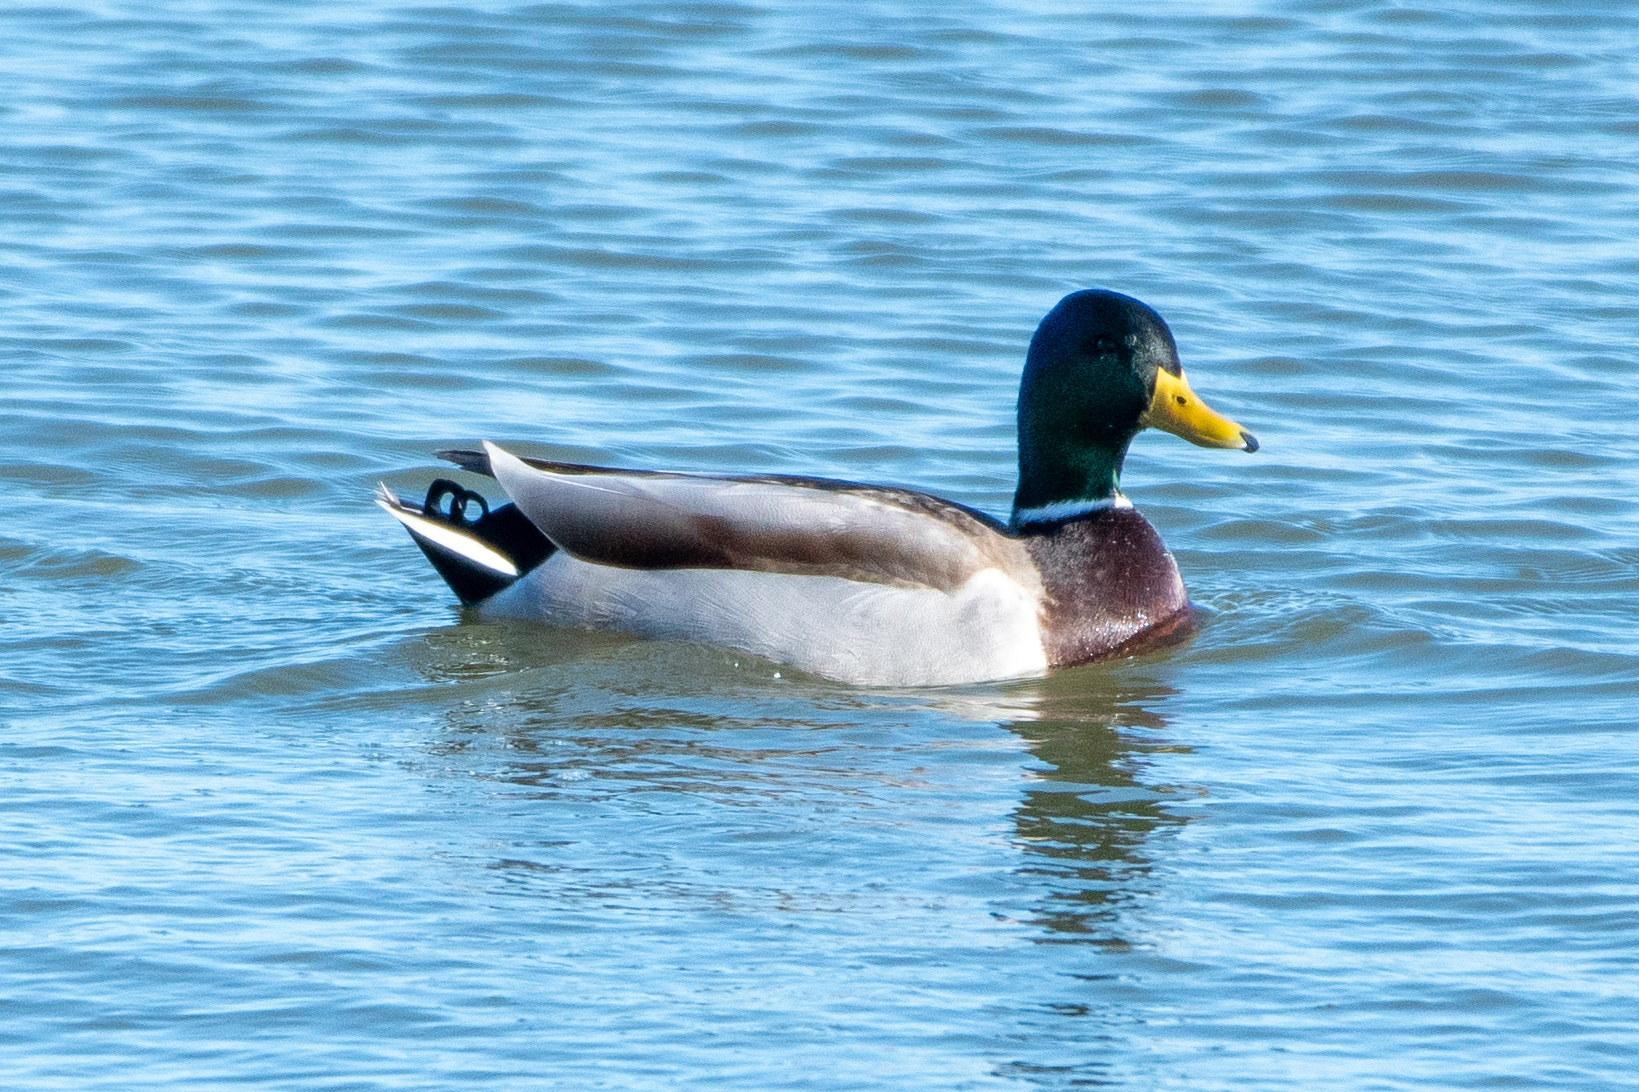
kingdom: Animalia
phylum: Chordata
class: Aves
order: Anseriformes
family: Anatidae
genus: Anas
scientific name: Anas platyrhynchos
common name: Mallard
